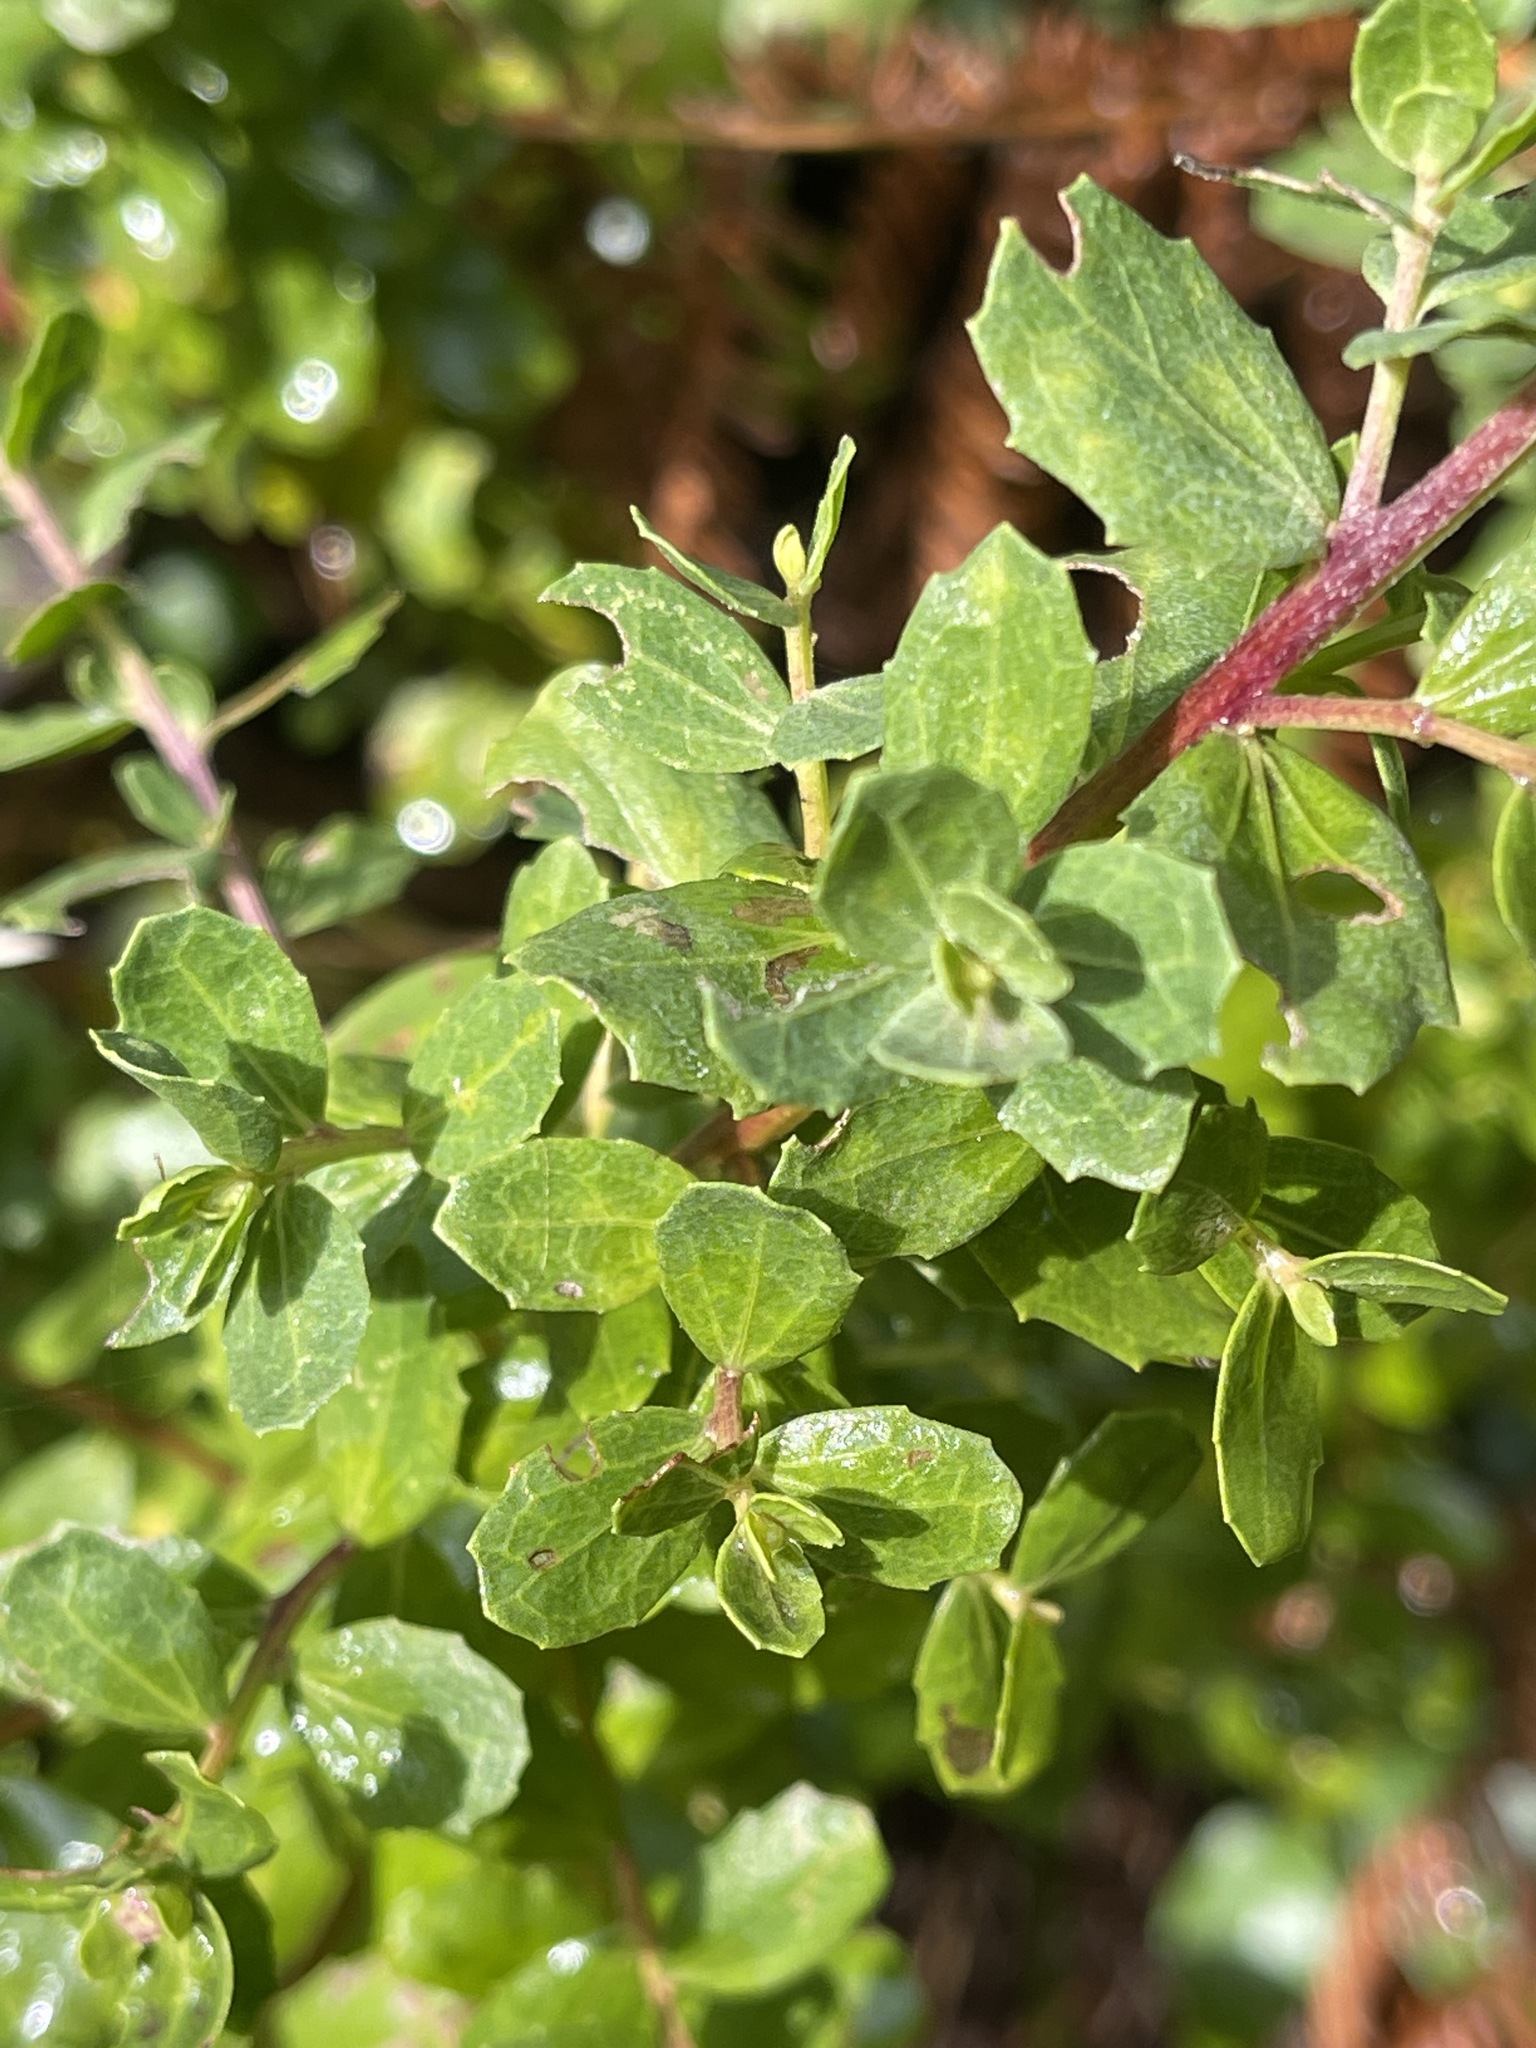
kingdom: Plantae
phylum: Tracheophyta
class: Magnoliopsida
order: Asterales
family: Asteraceae
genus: Baccharis
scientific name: Baccharis pilularis
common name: Coyotebrush
